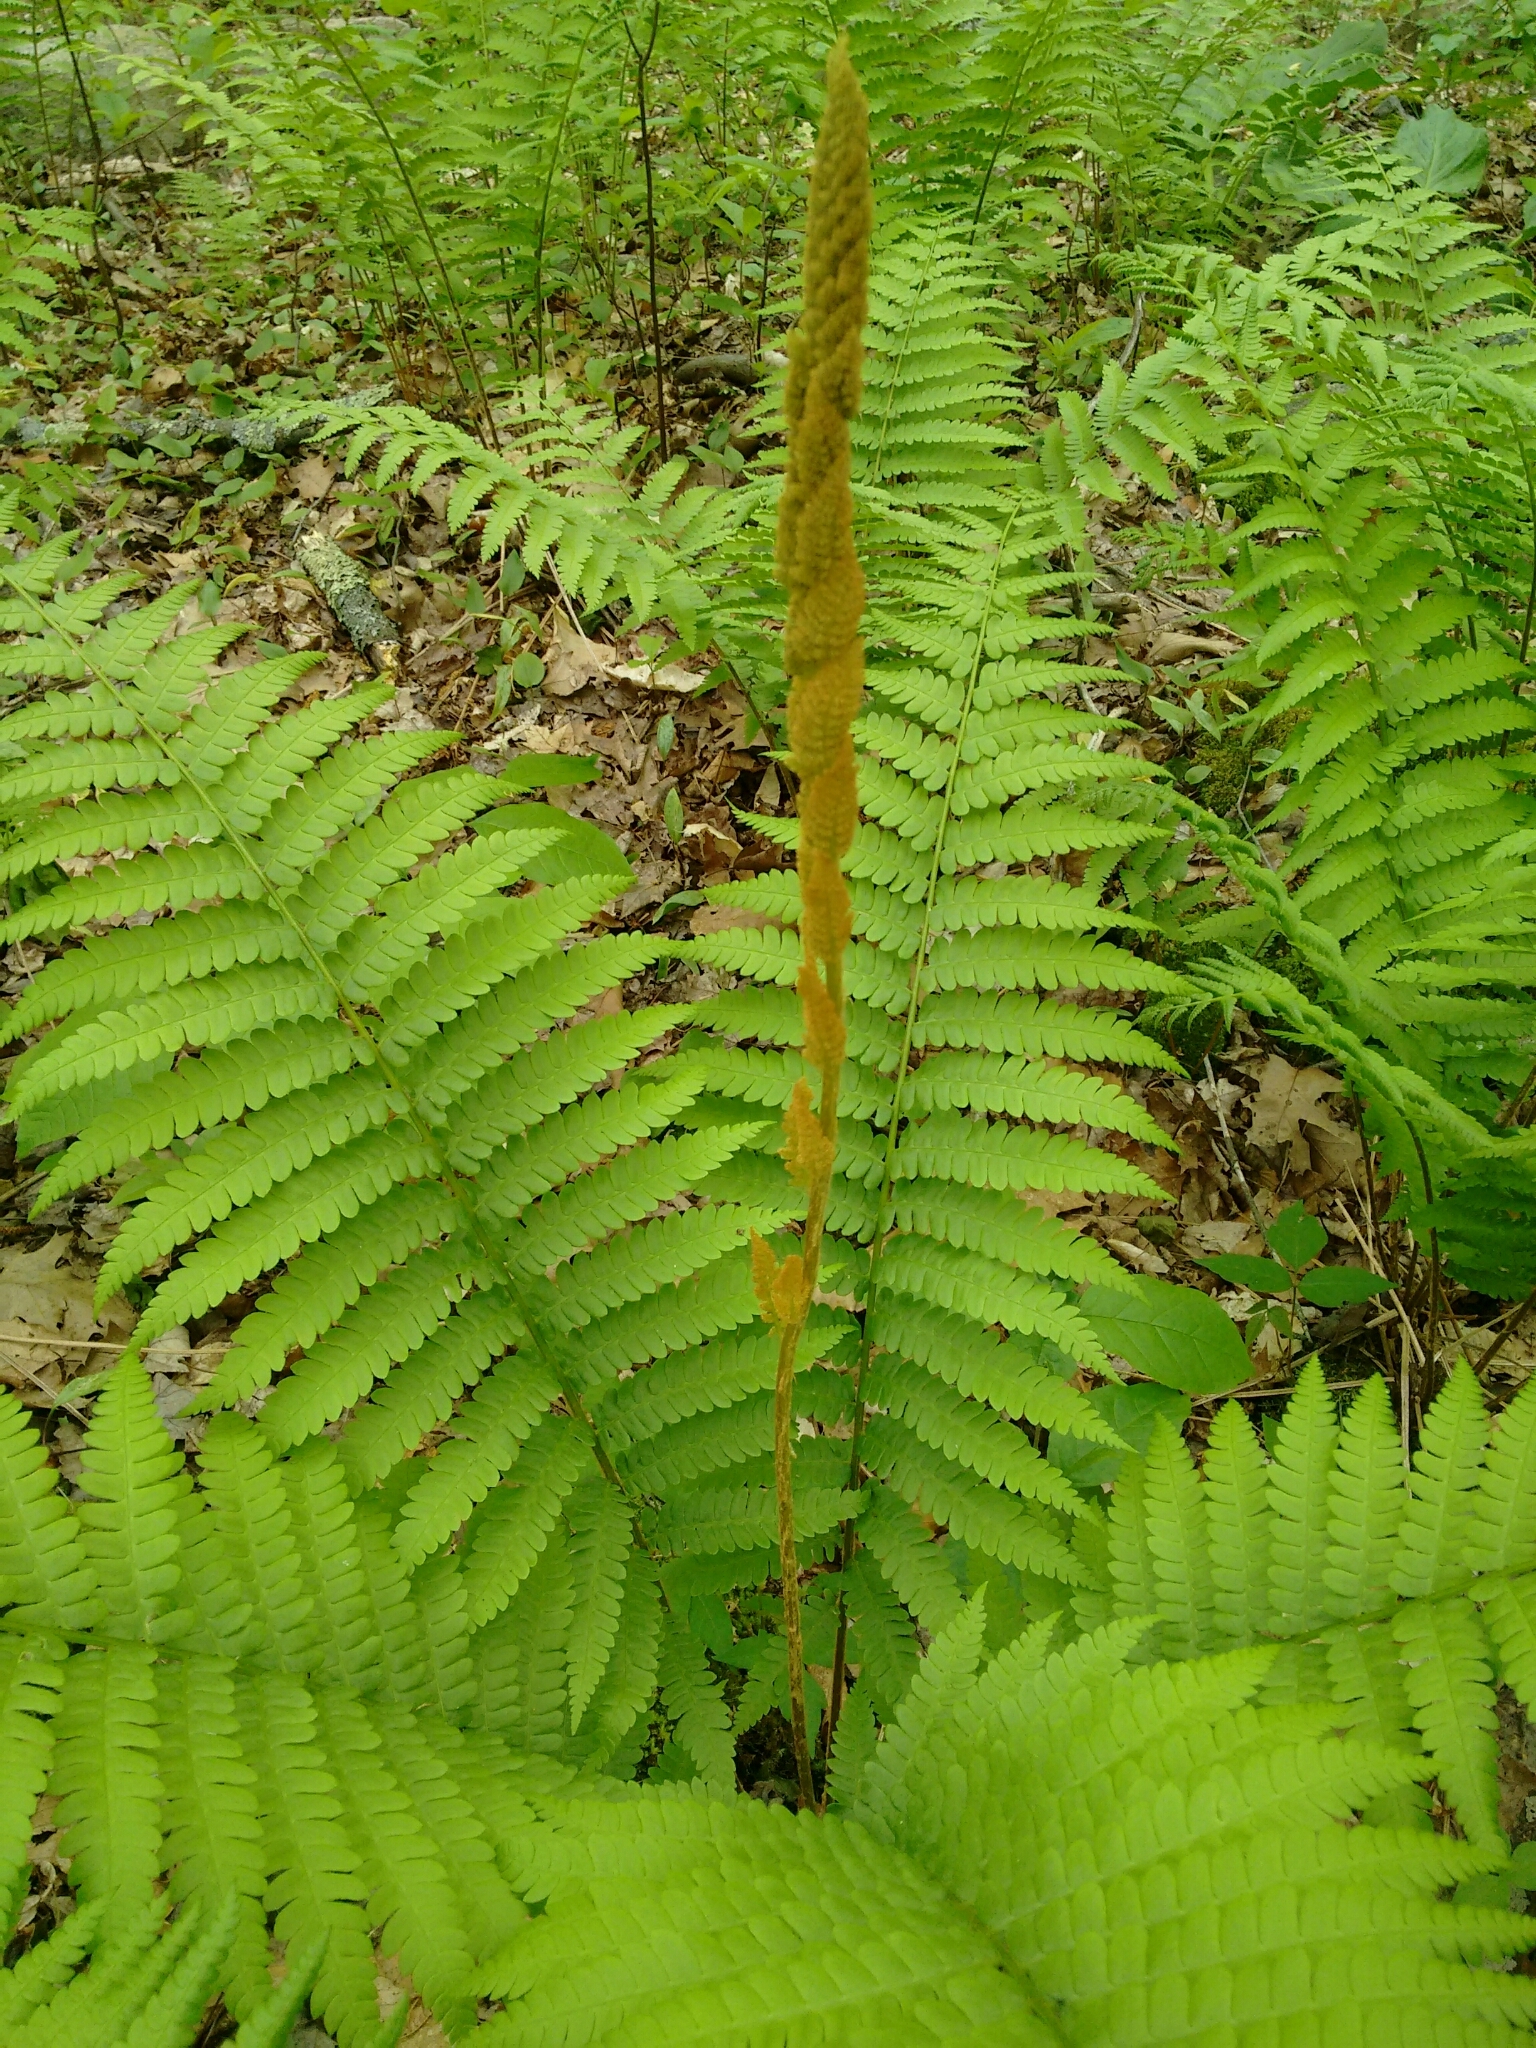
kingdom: Plantae
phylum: Tracheophyta
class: Polypodiopsida
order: Osmundales
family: Osmundaceae
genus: Osmundastrum
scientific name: Osmundastrum cinnamomeum
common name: Cinnamon fern
